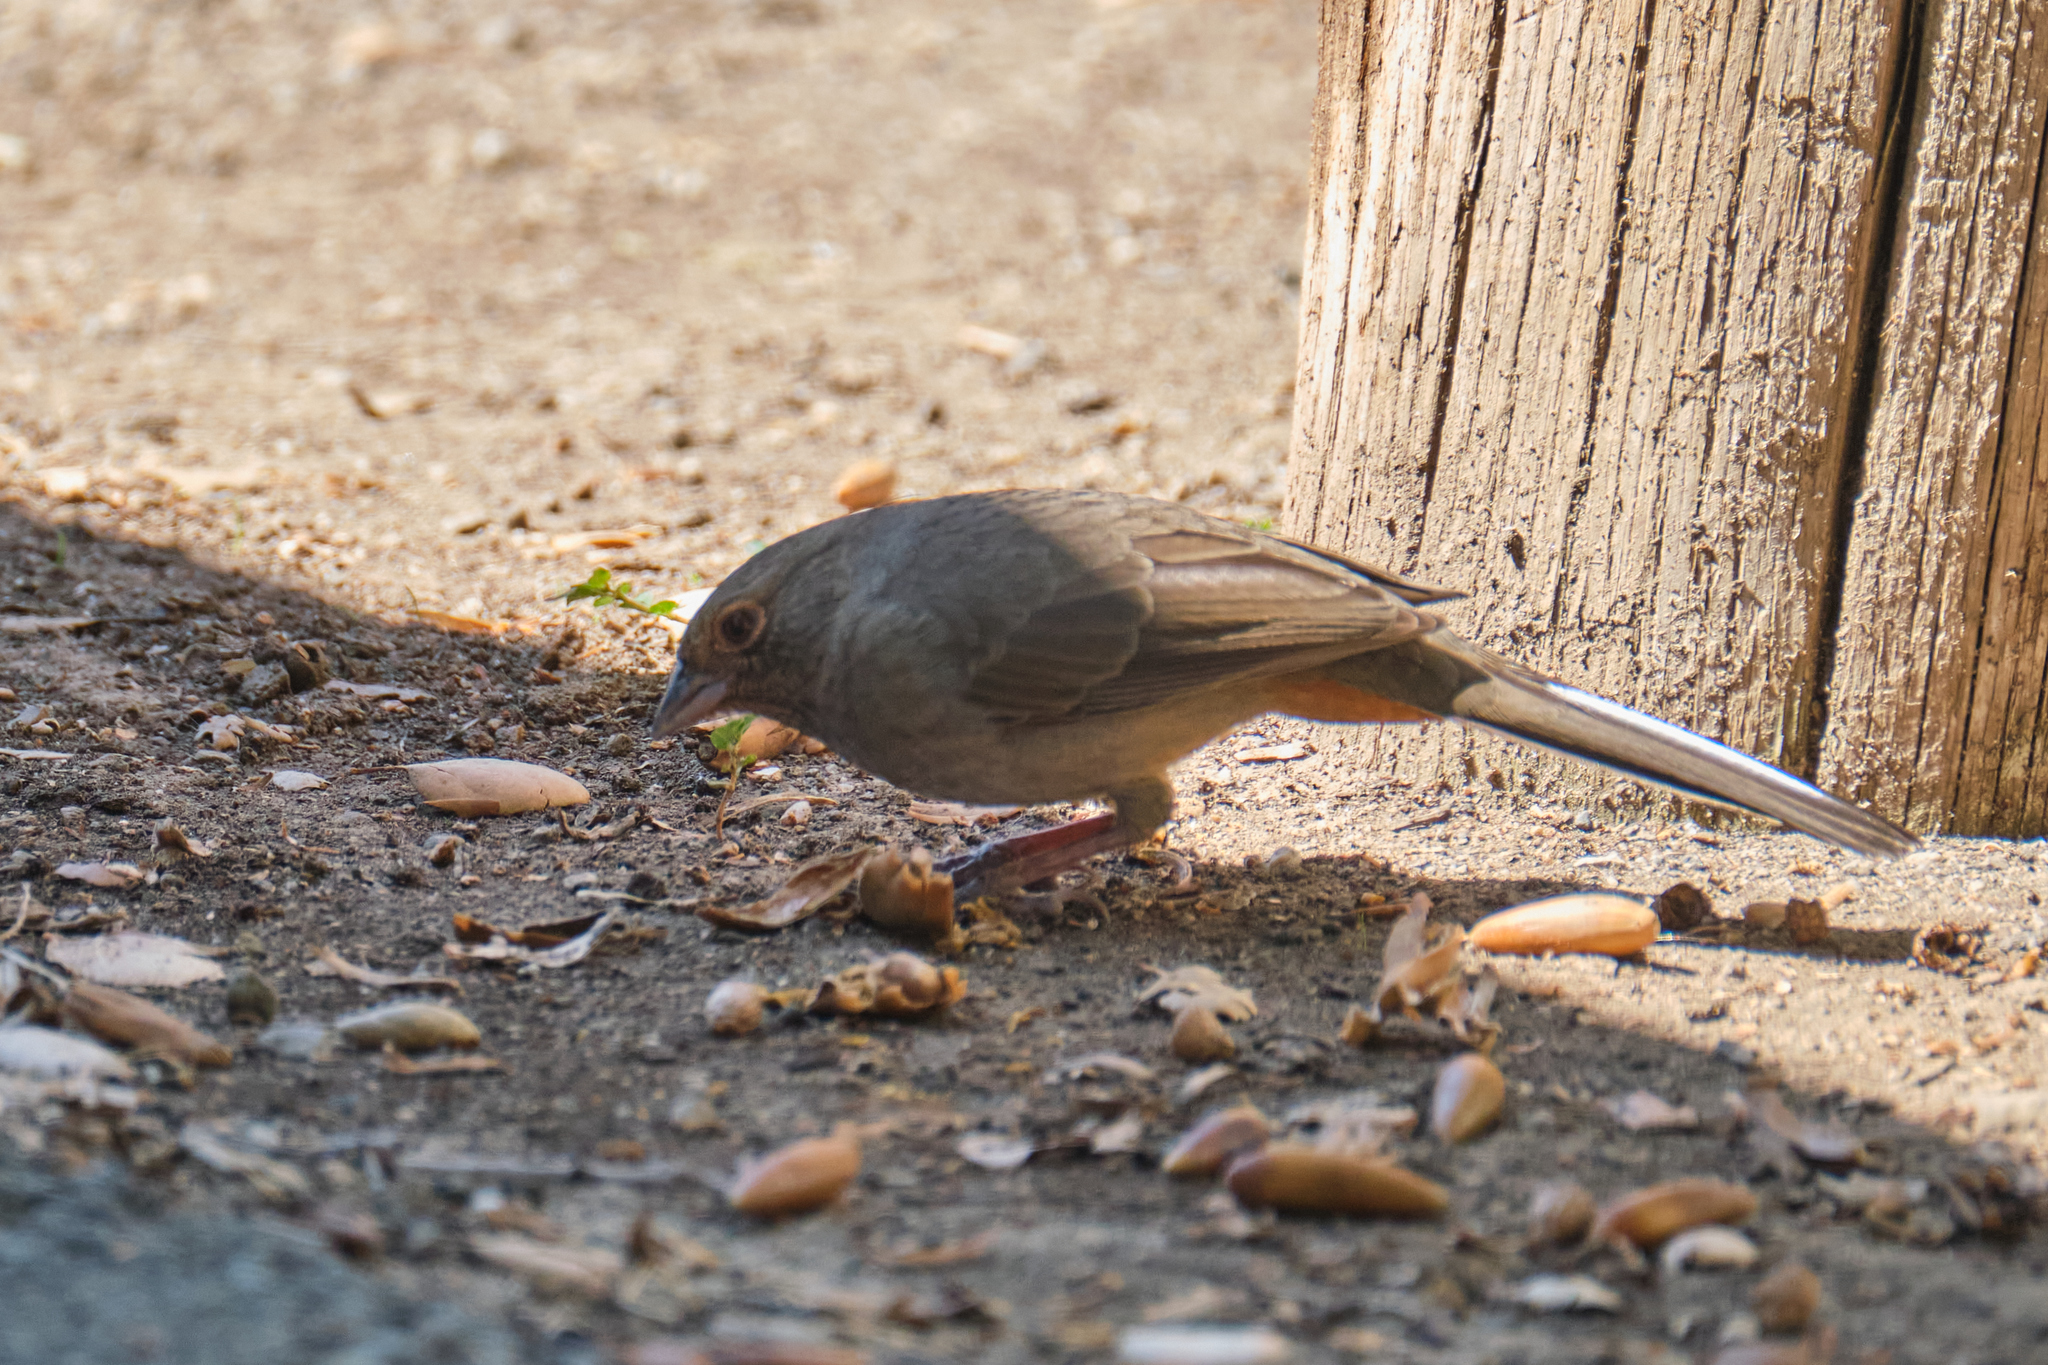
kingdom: Animalia
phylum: Chordata
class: Aves
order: Passeriformes
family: Passerellidae
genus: Melozone
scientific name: Melozone crissalis
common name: California towhee
